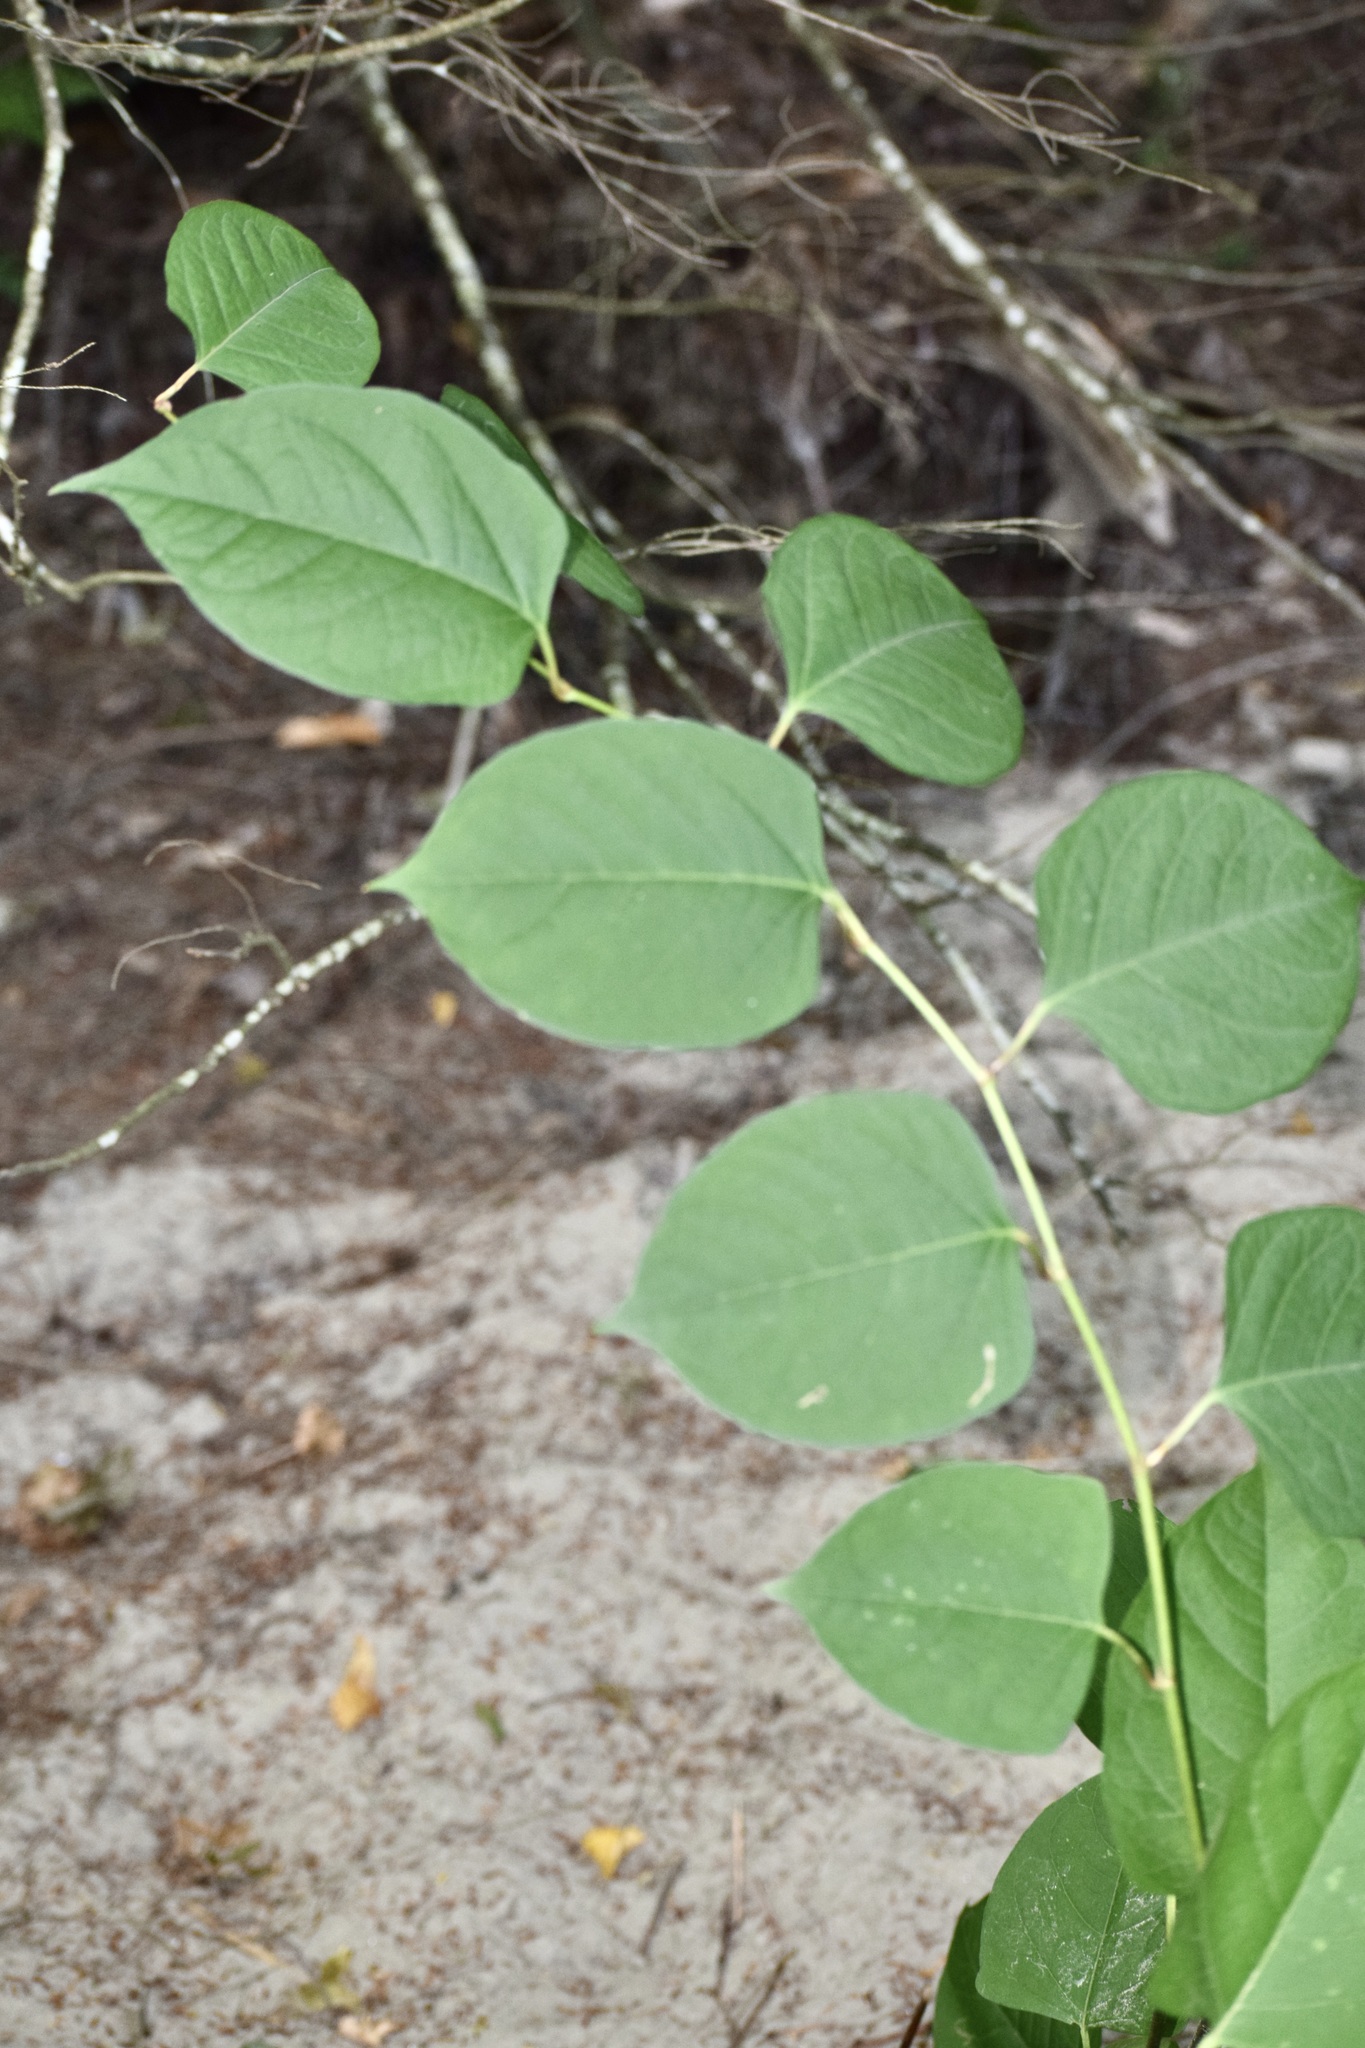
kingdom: Plantae
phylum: Tracheophyta
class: Magnoliopsida
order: Caryophyllales
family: Polygonaceae
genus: Reynoutria
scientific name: Reynoutria japonica
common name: Japanese knotweed
